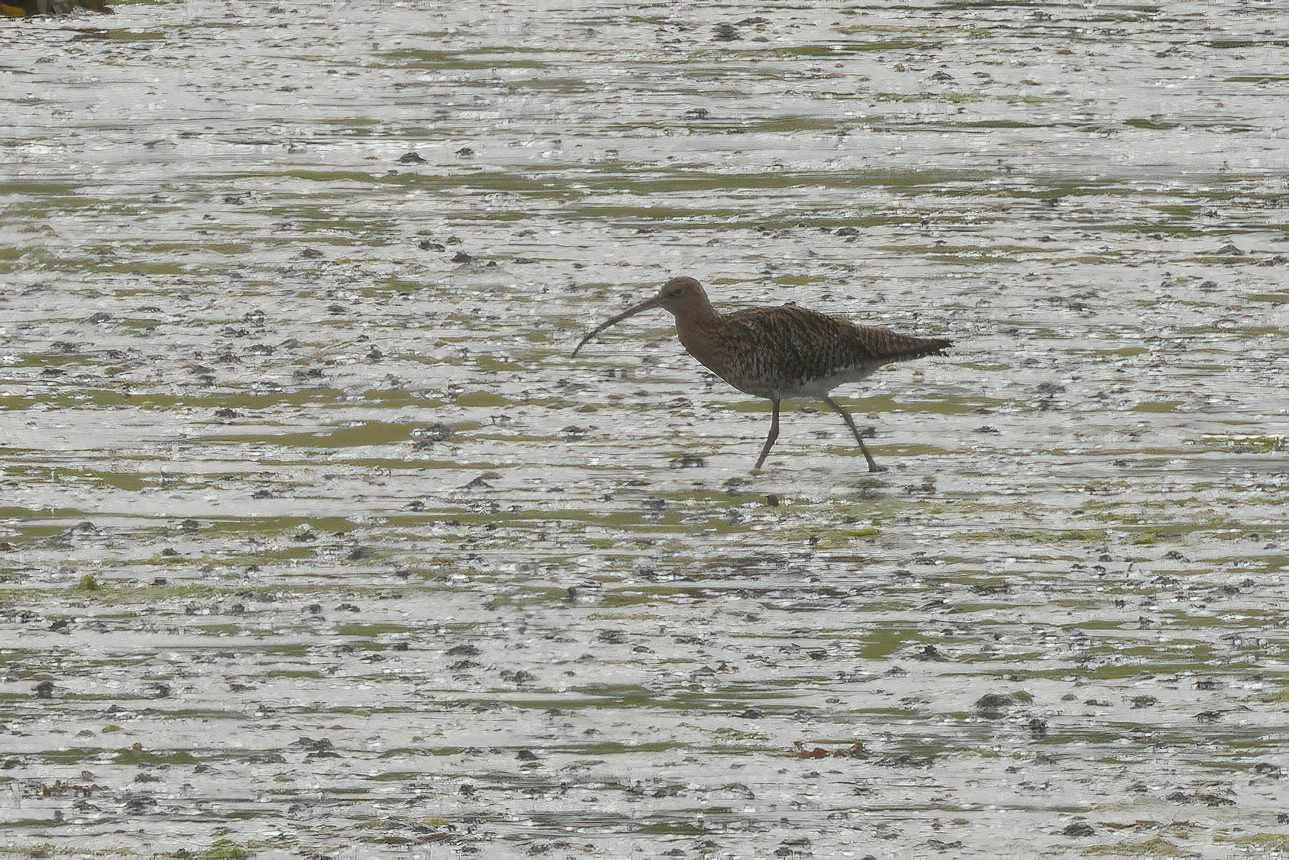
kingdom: Animalia
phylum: Chordata
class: Aves
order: Charadriiformes
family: Scolopacidae
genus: Numenius
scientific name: Numenius arquata
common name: Eurasian curlew
